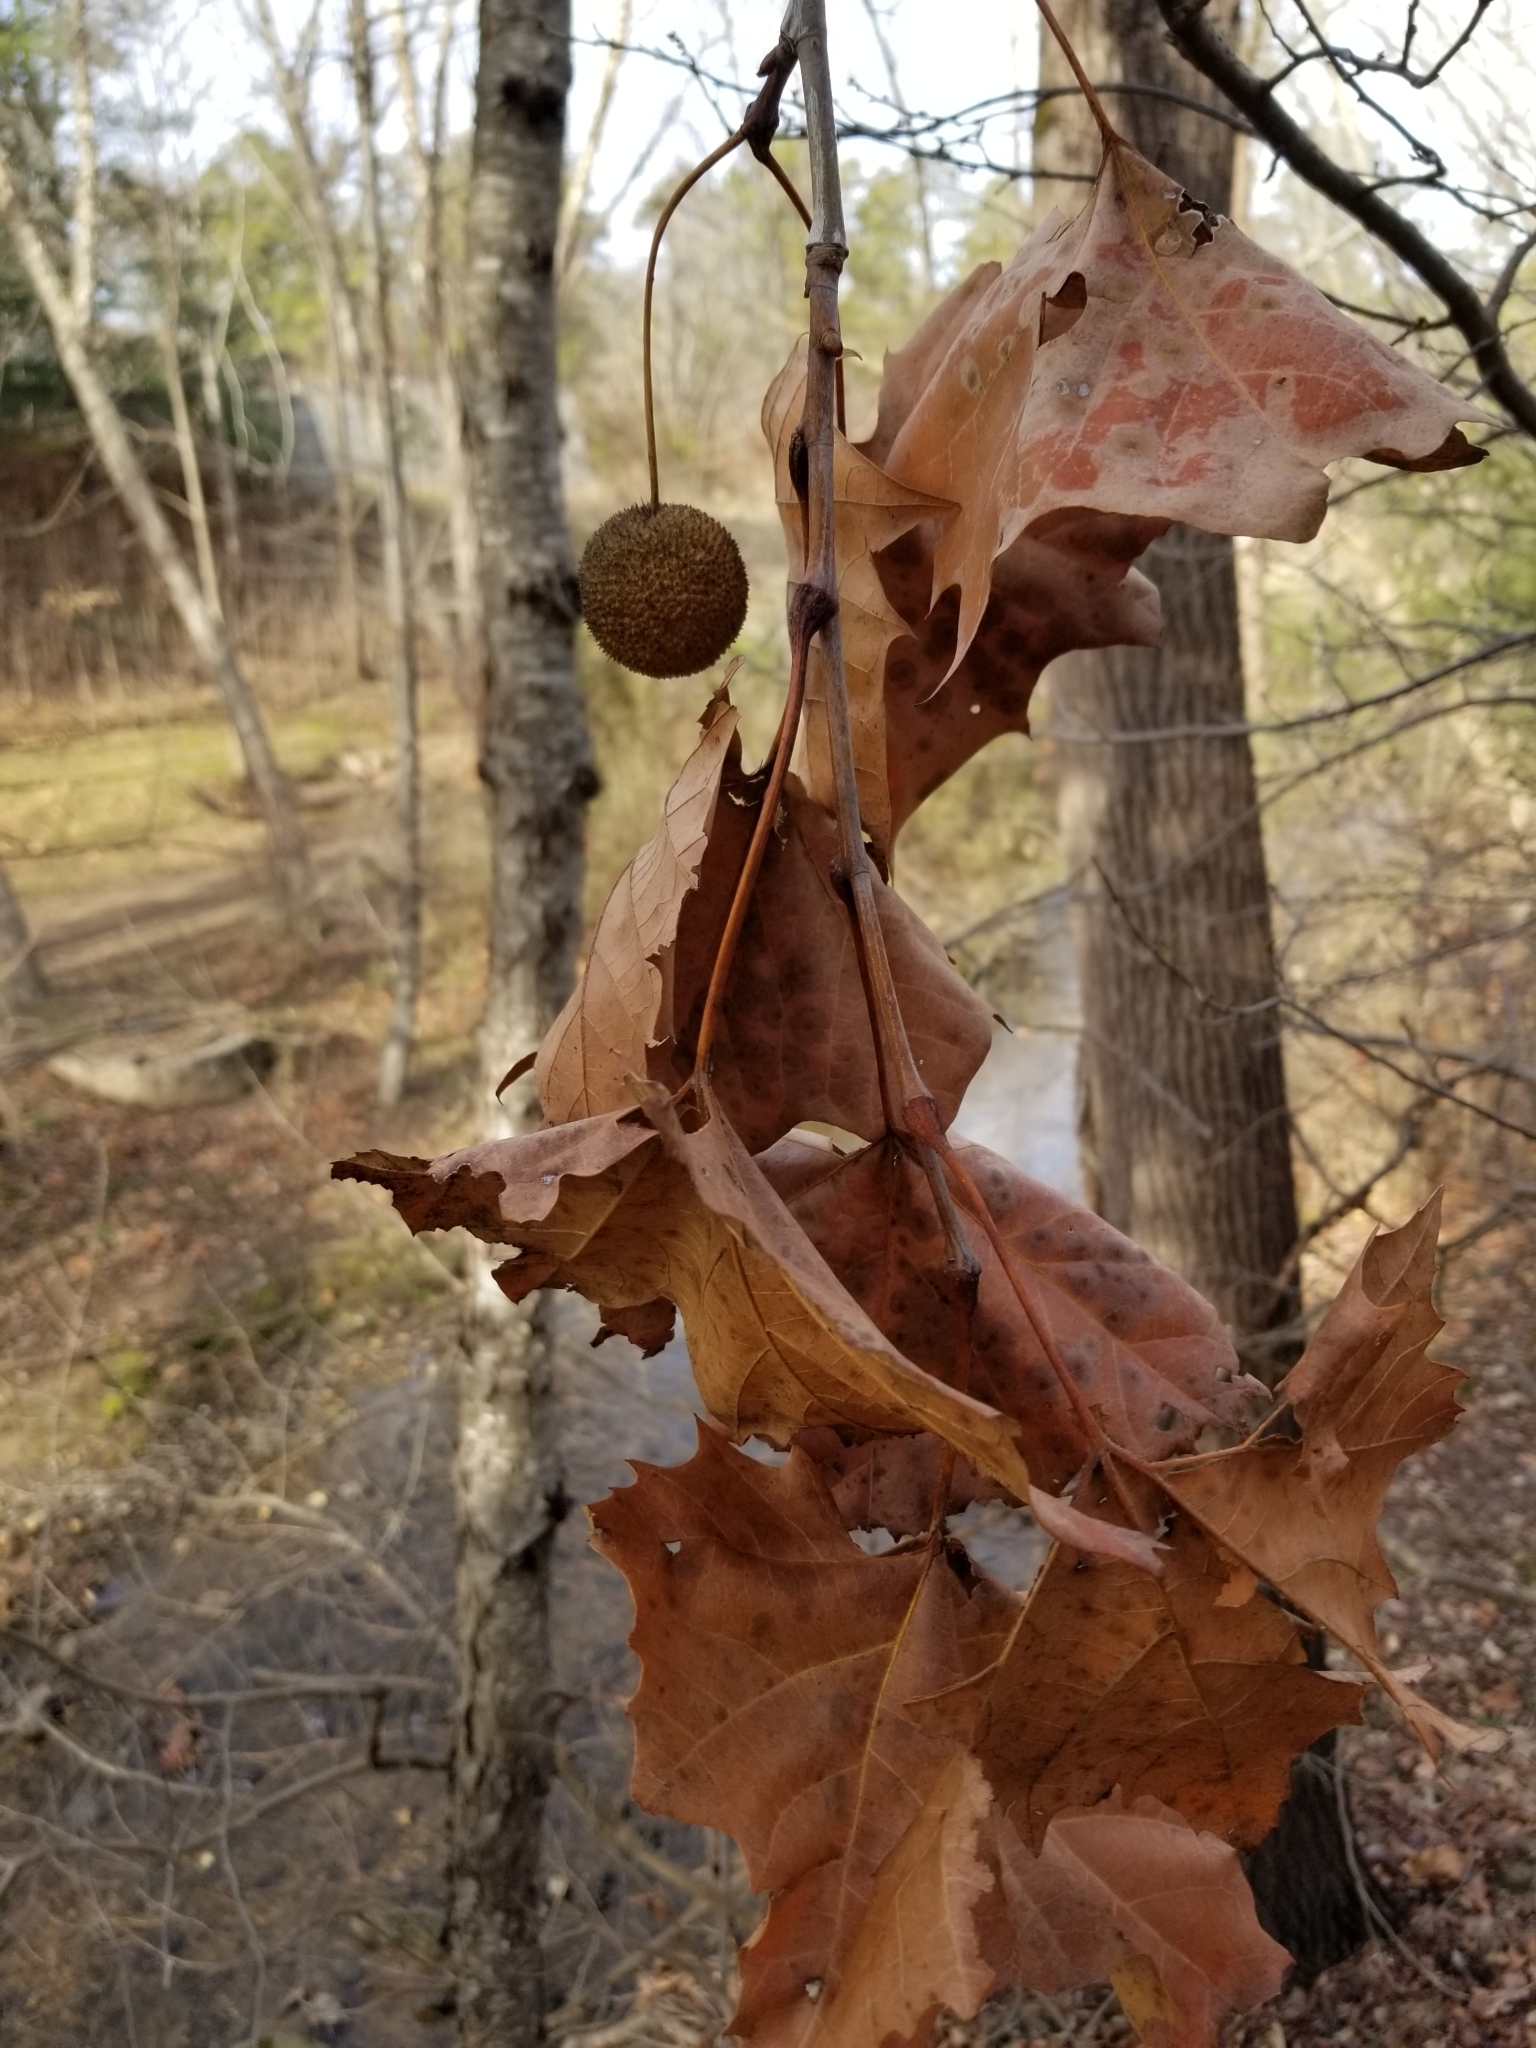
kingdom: Plantae
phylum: Tracheophyta
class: Magnoliopsida
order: Proteales
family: Platanaceae
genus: Platanus
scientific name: Platanus occidentalis
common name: American sycamore
